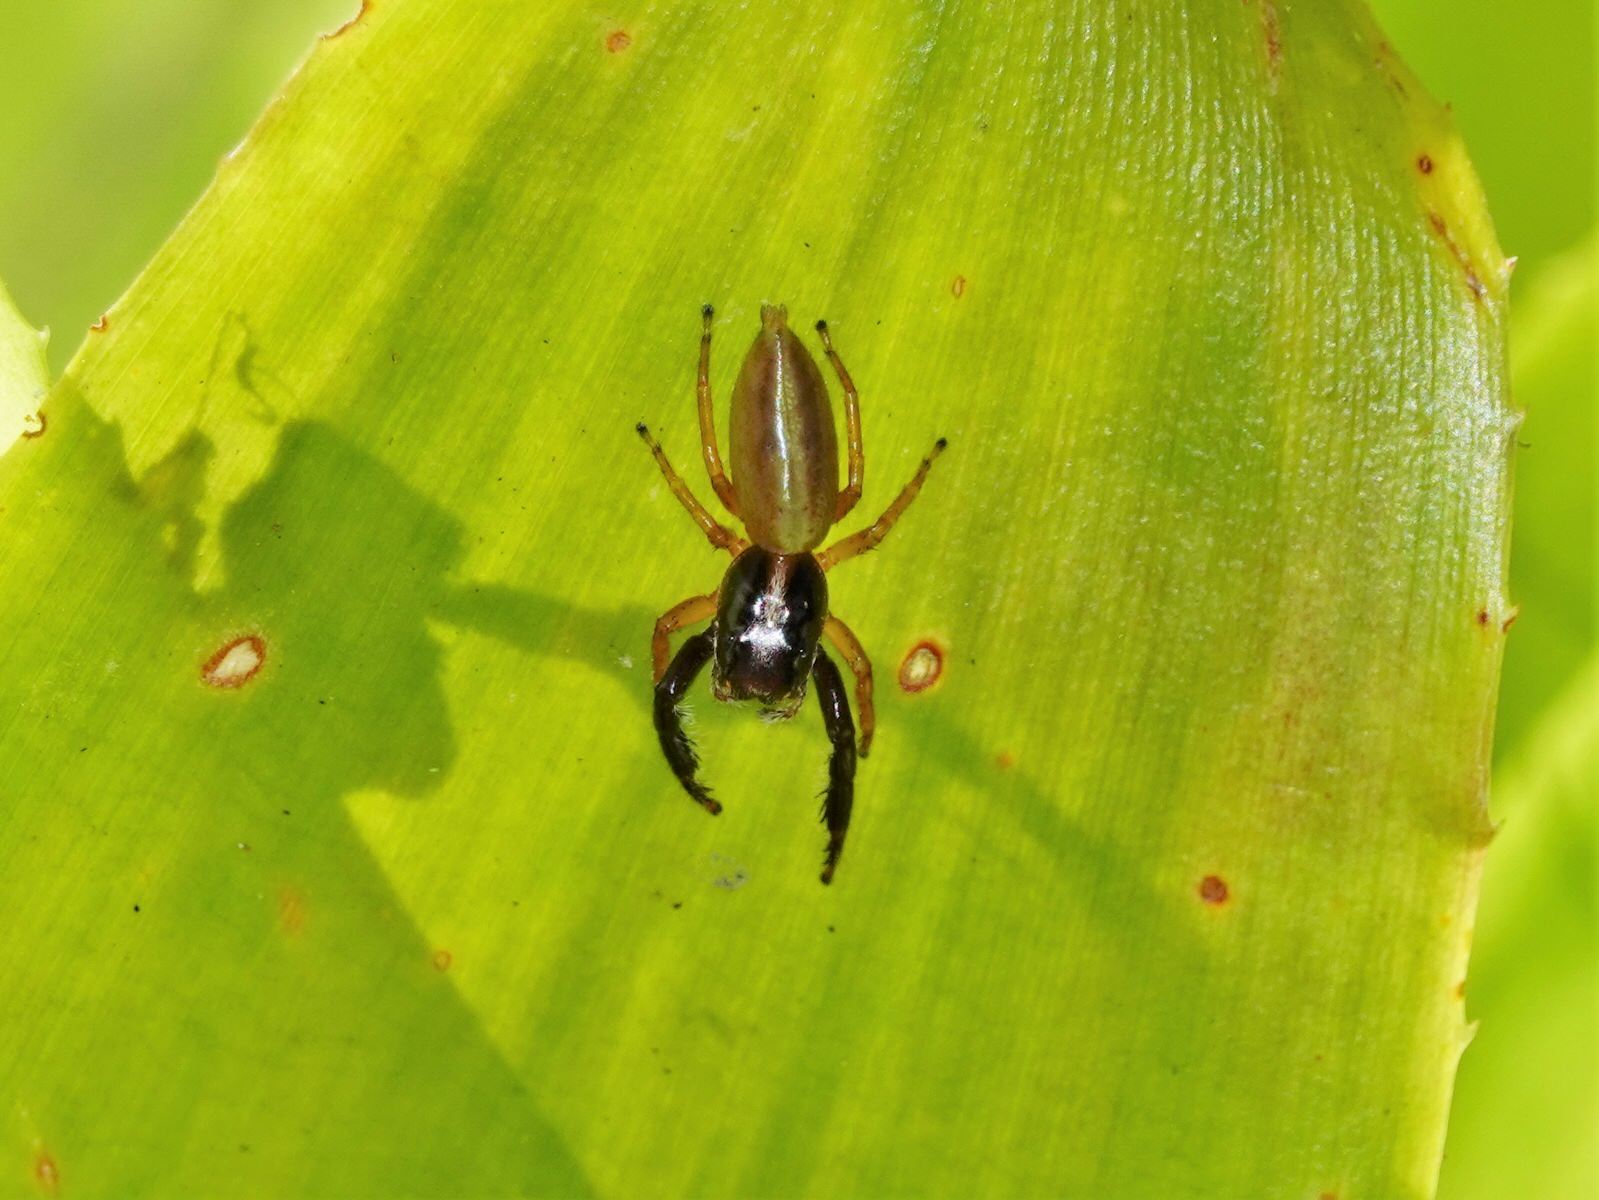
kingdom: Animalia
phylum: Arthropoda
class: Arachnida
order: Araneae
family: Salticidae
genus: Trite
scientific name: Trite planiceps
